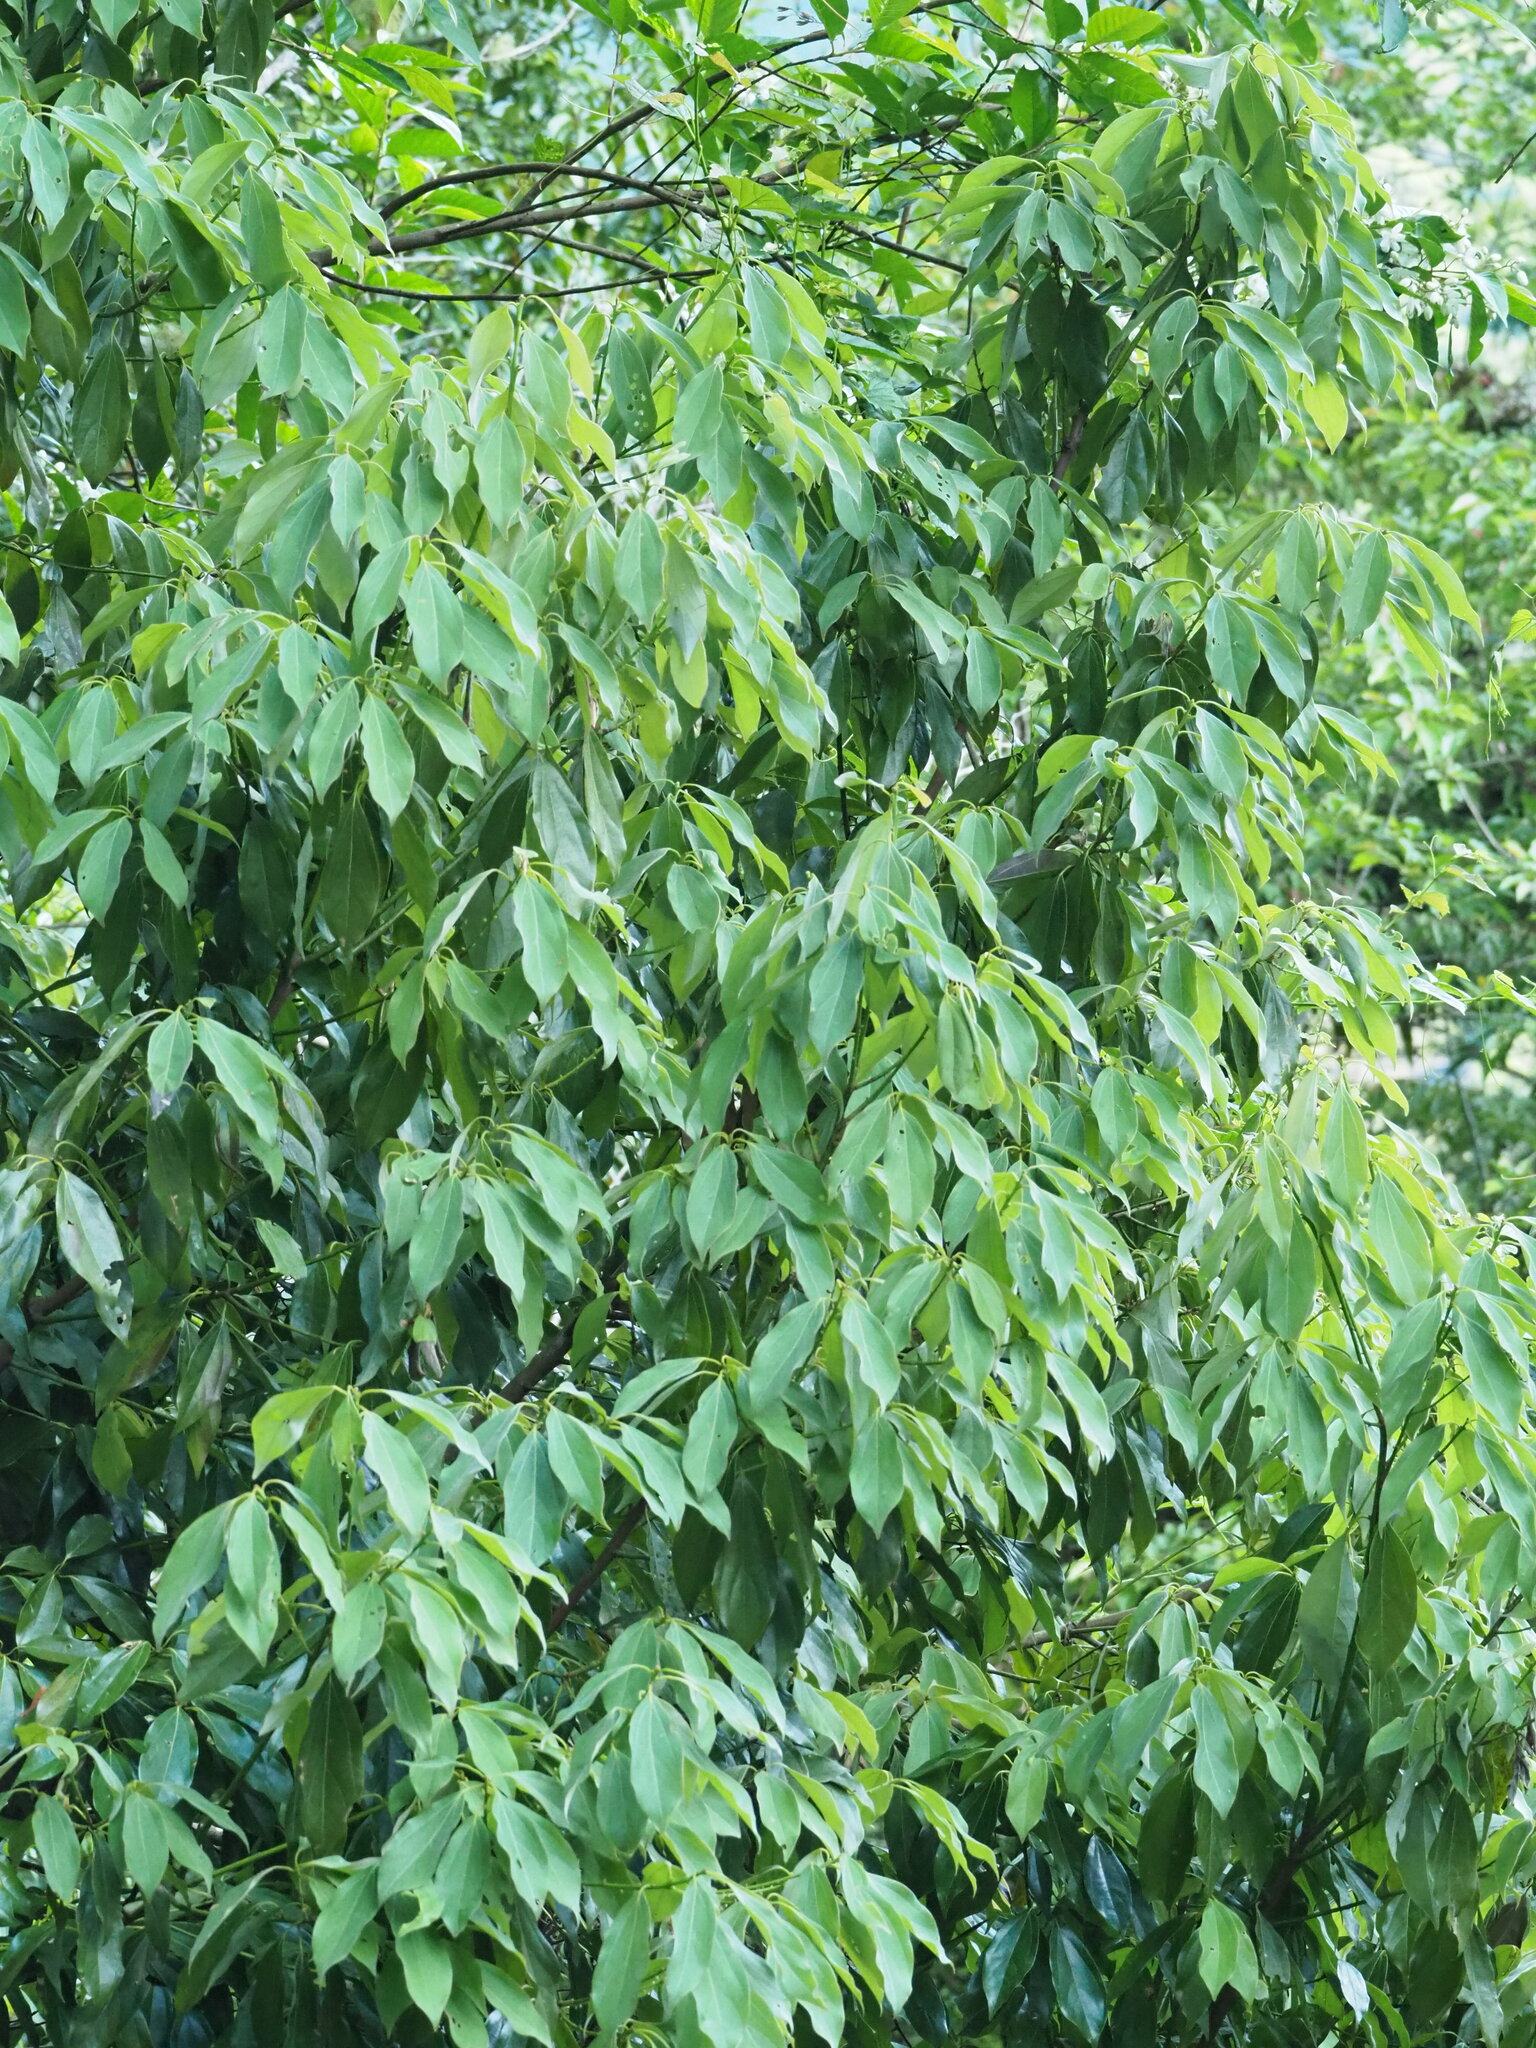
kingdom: Plantae
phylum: Tracheophyta
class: Magnoliopsida
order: Laurales
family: Lauraceae
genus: Neolitsea
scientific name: Neolitsea variabillima
